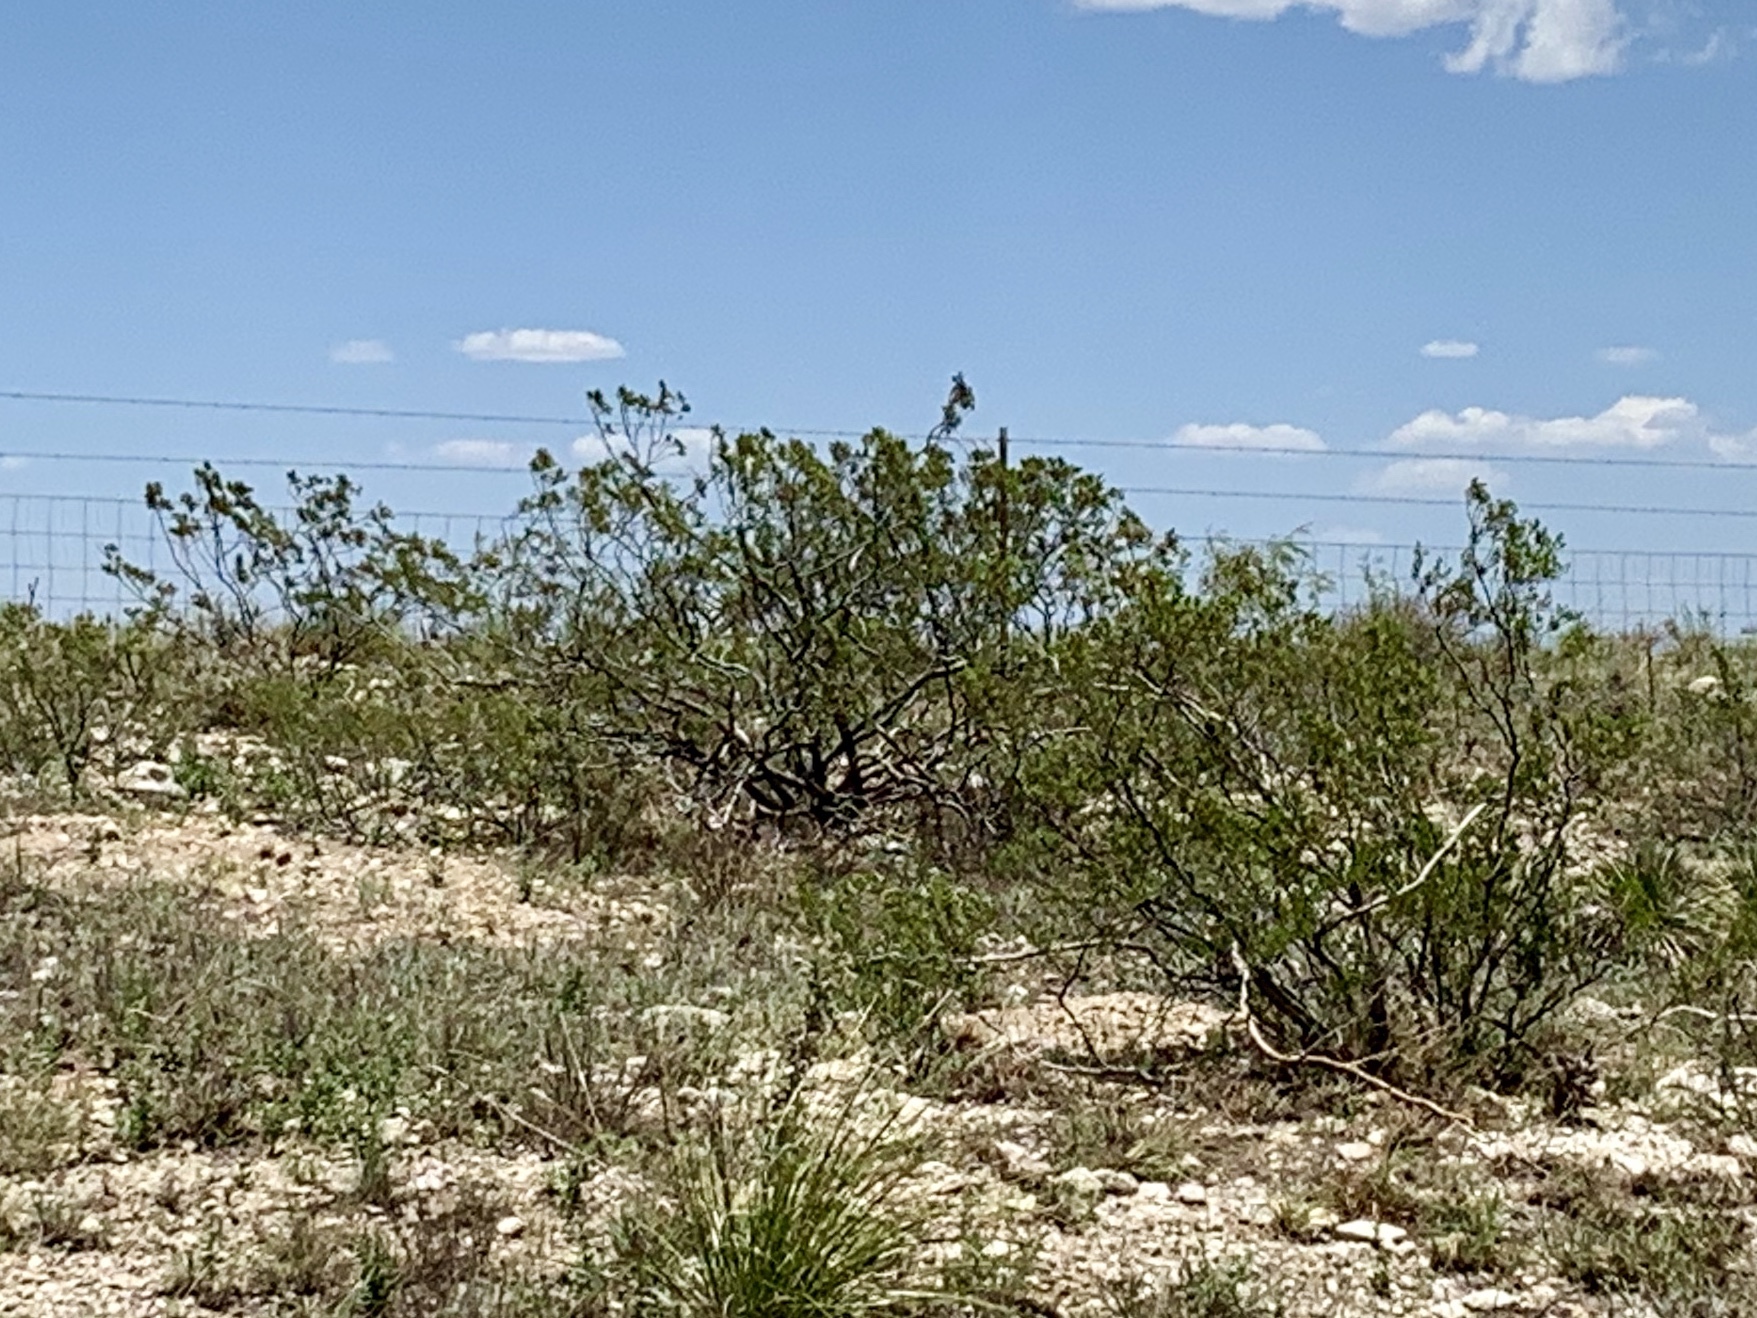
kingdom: Plantae
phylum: Tracheophyta
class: Magnoliopsida
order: Zygophyllales
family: Zygophyllaceae
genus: Larrea
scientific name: Larrea tridentata
